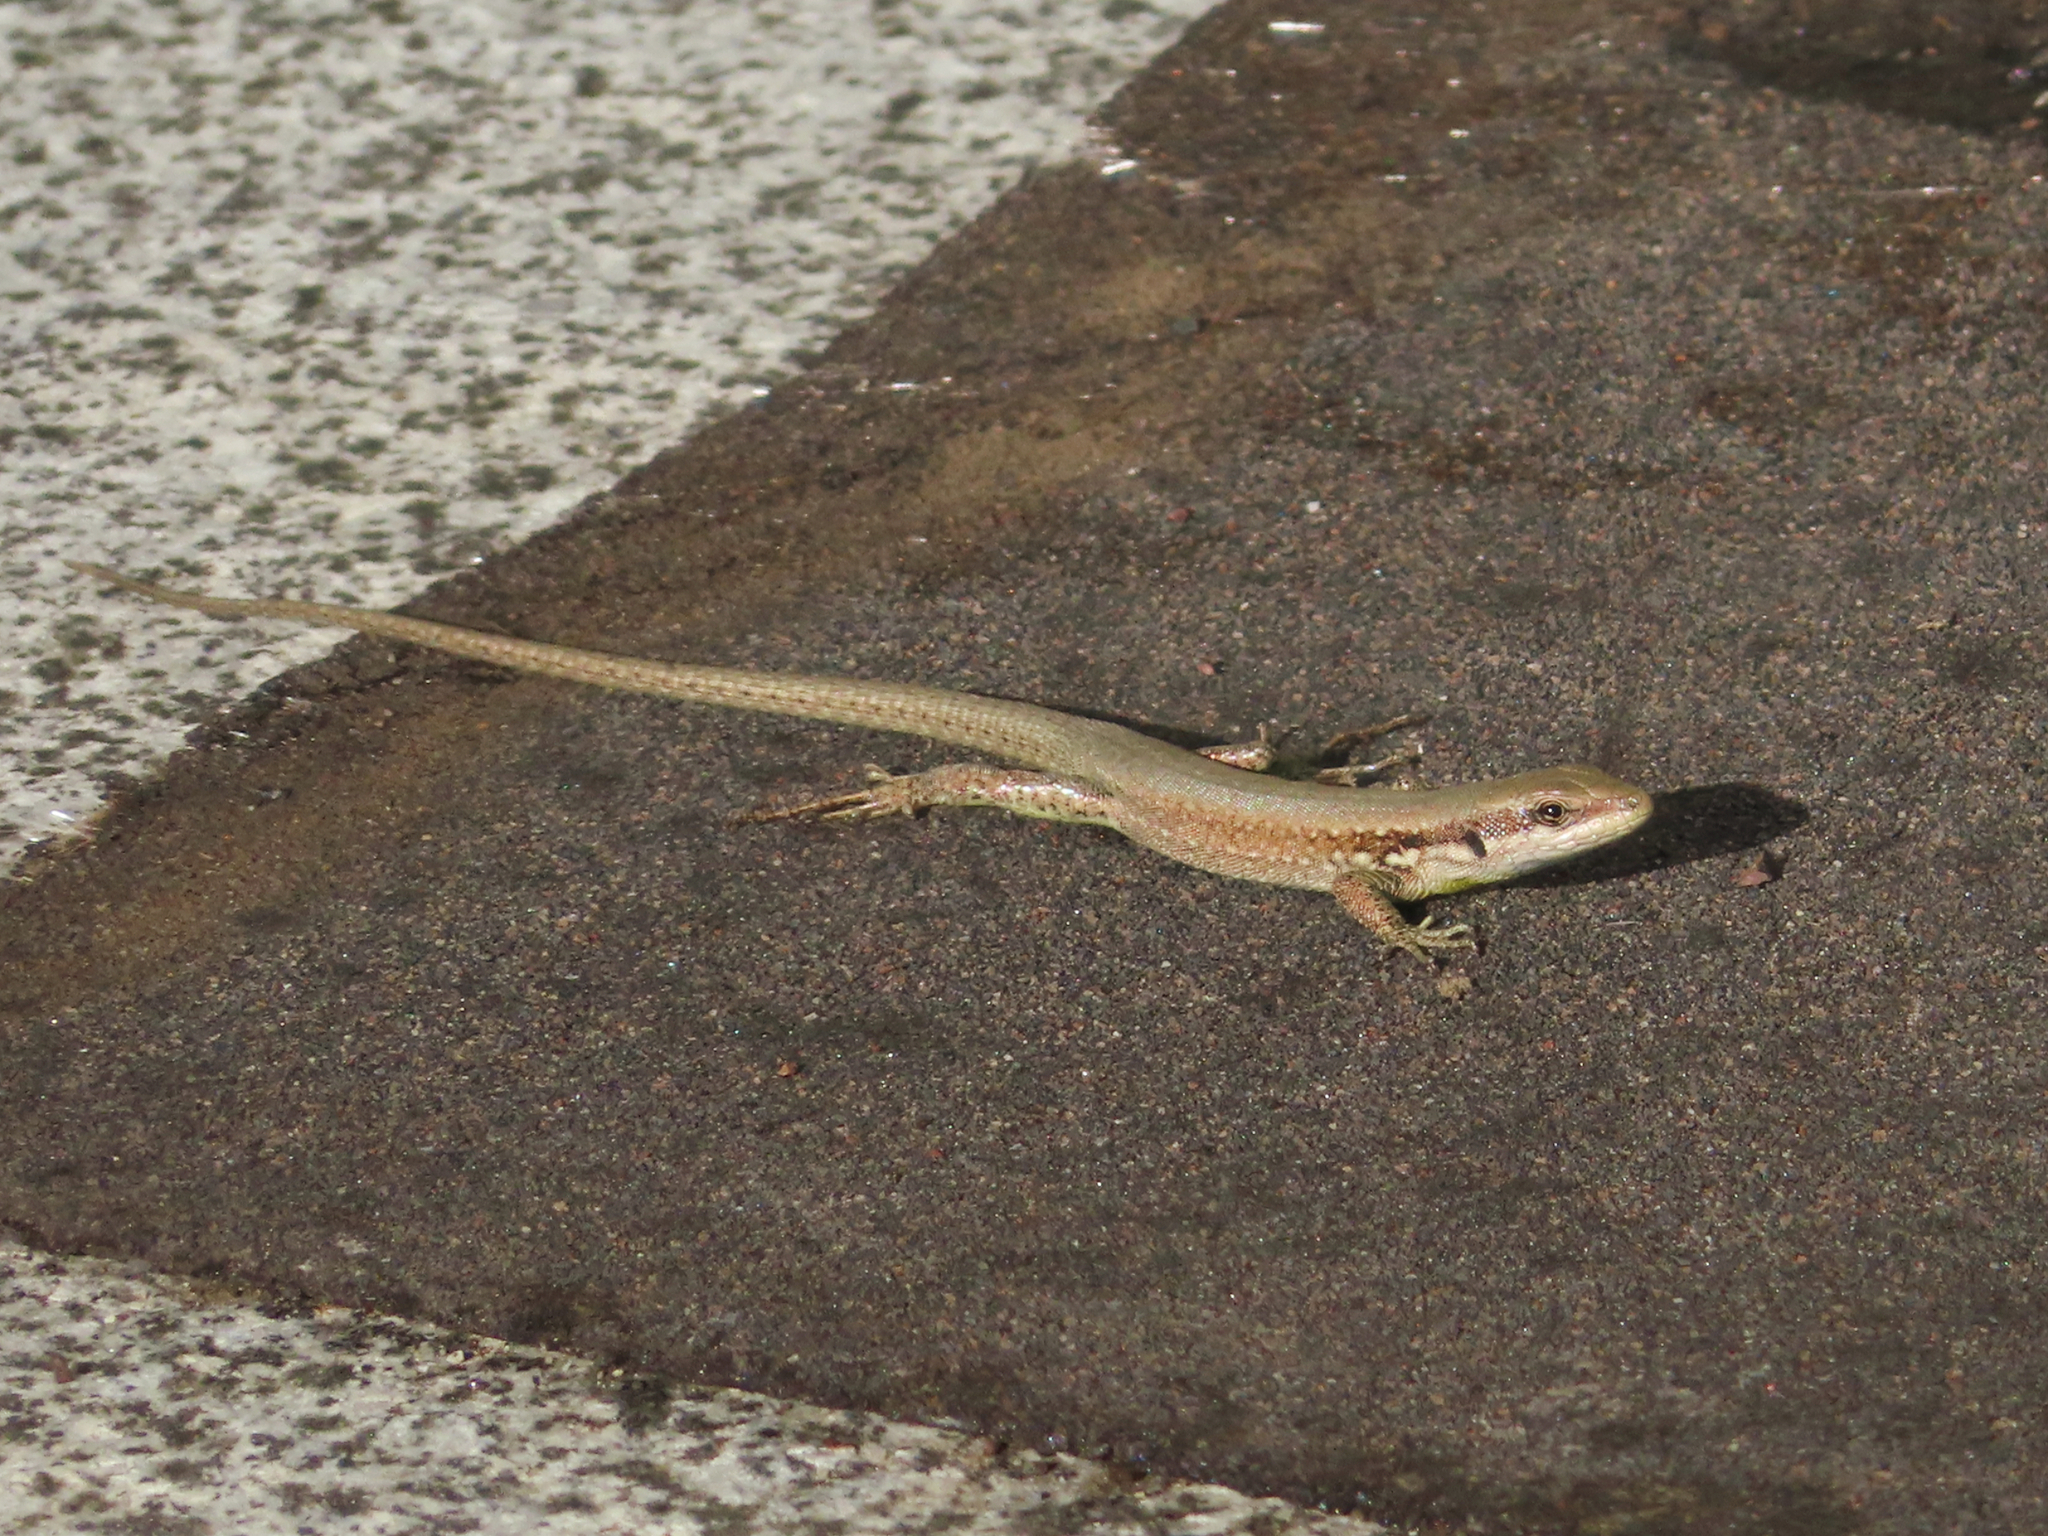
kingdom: Animalia
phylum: Chordata
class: Squamata
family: Lacertidae
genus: Phoenicolacerta
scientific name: Phoenicolacerta laevis
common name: Lebanon lizard
